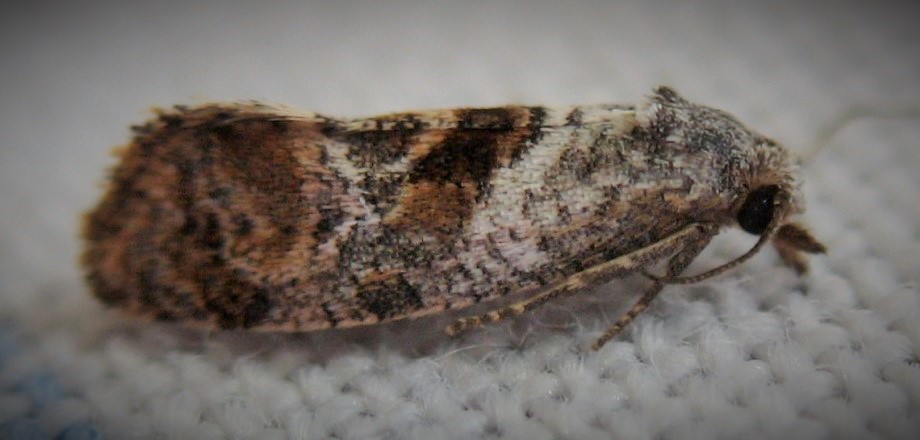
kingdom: Animalia
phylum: Arthropoda
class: Insecta
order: Lepidoptera
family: Tortricidae
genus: Cochylis
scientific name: Cochylis Cochylichroa temerana
